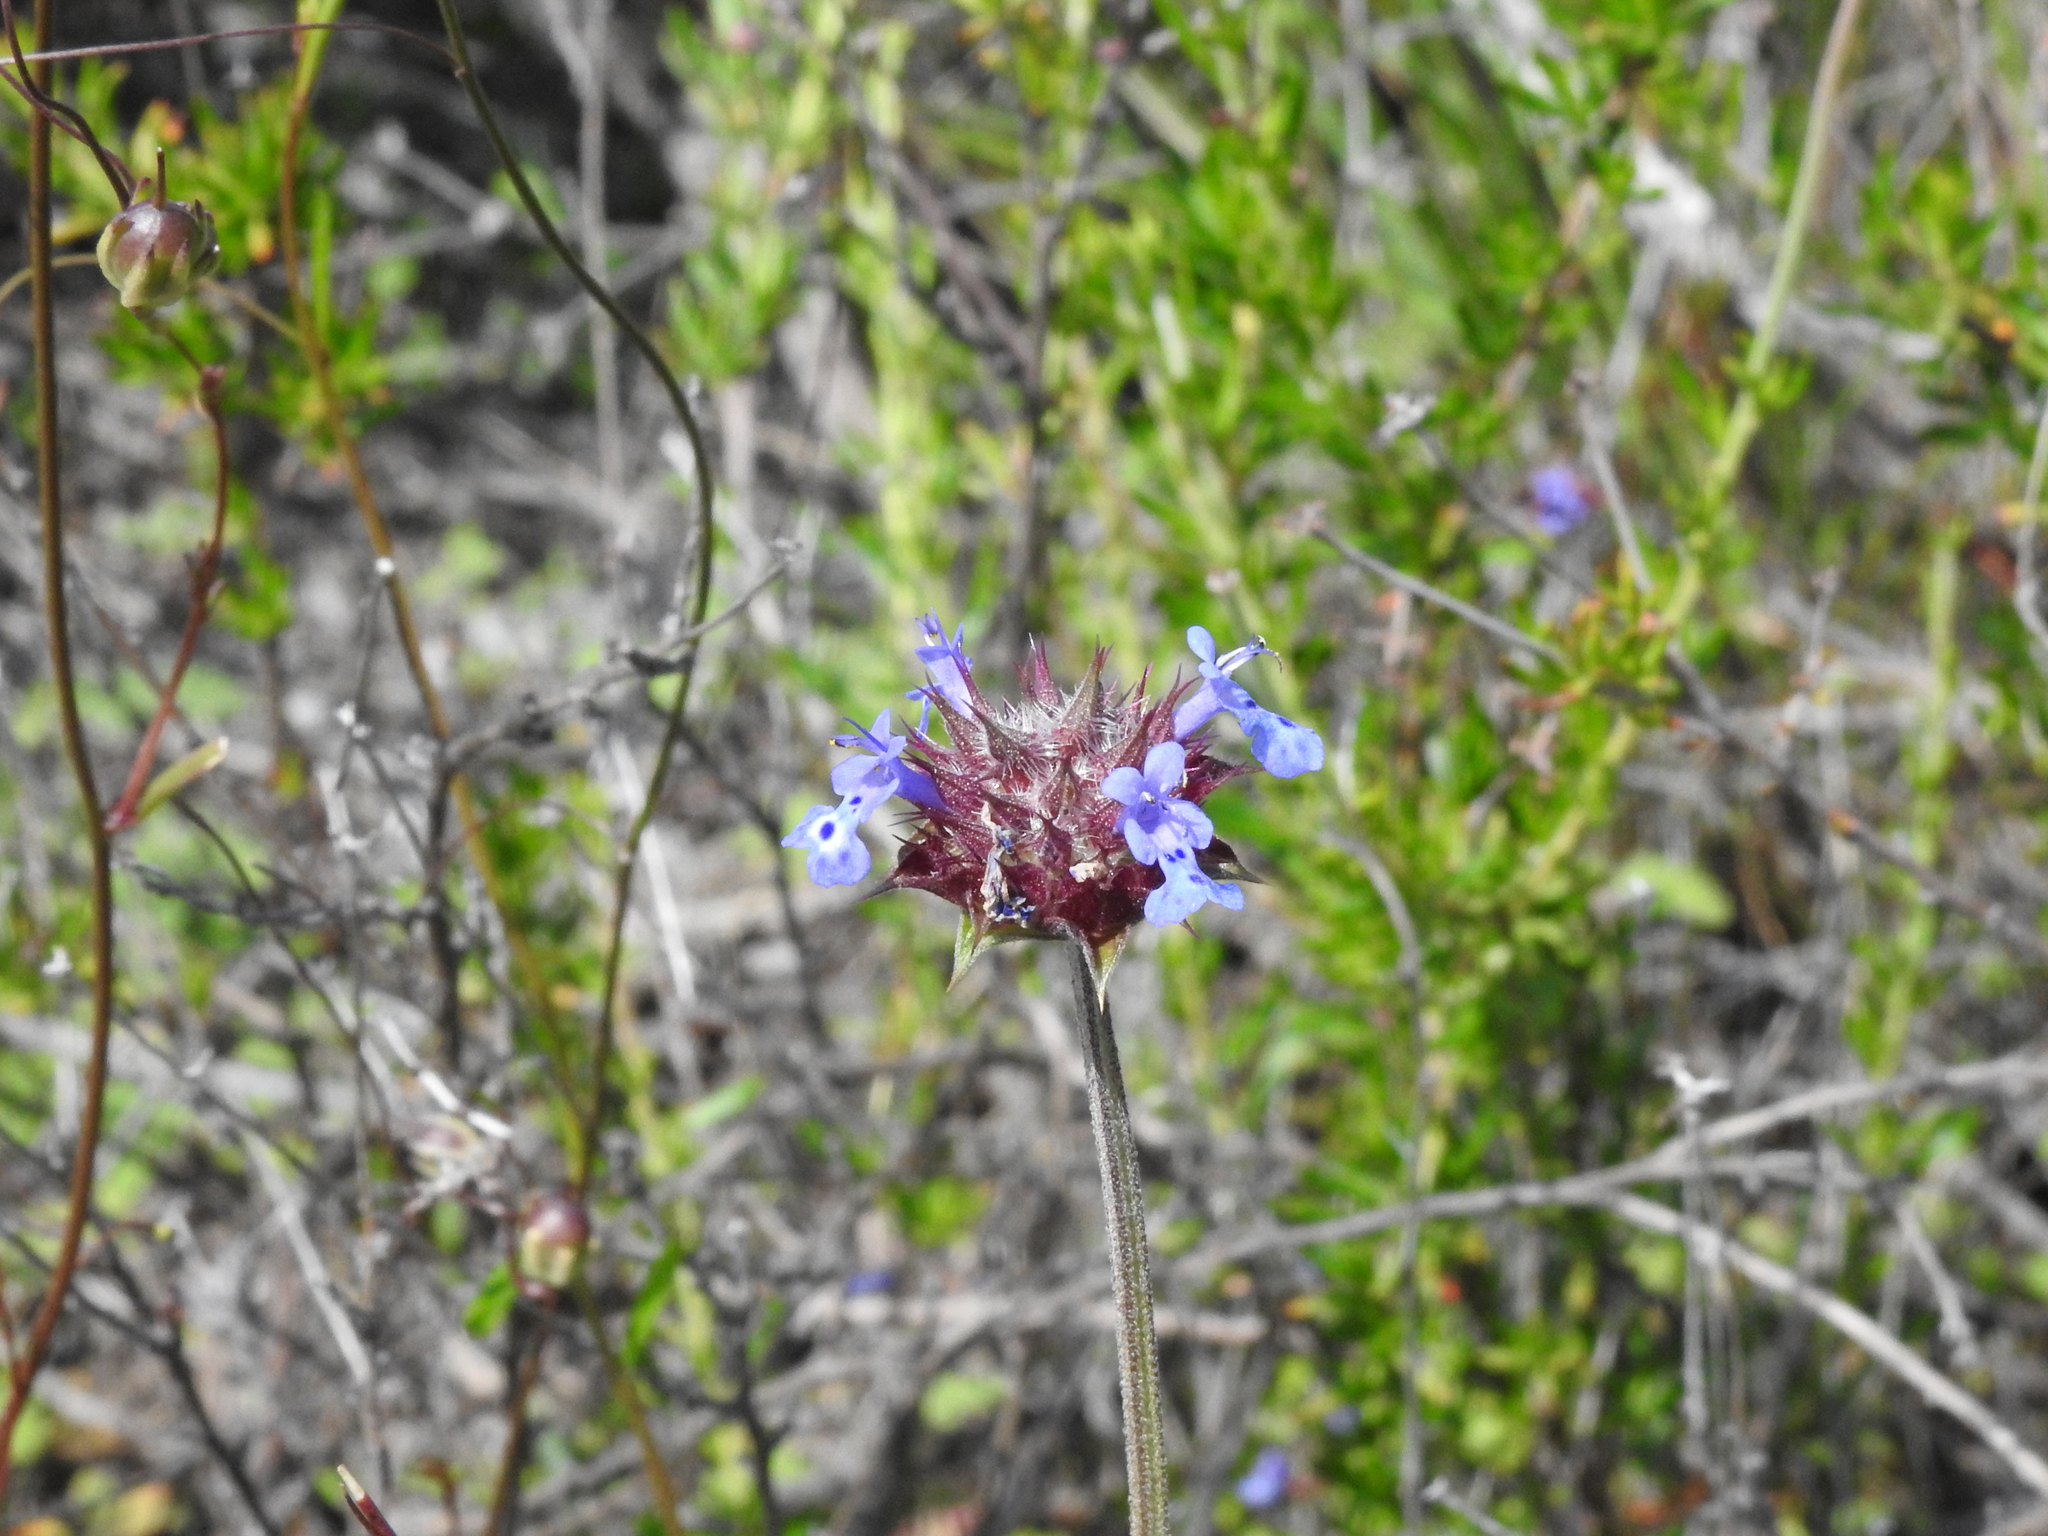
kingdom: Plantae
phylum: Tracheophyta
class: Magnoliopsida
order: Lamiales
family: Lamiaceae
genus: Salvia
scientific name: Salvia columbariae
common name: Chia
